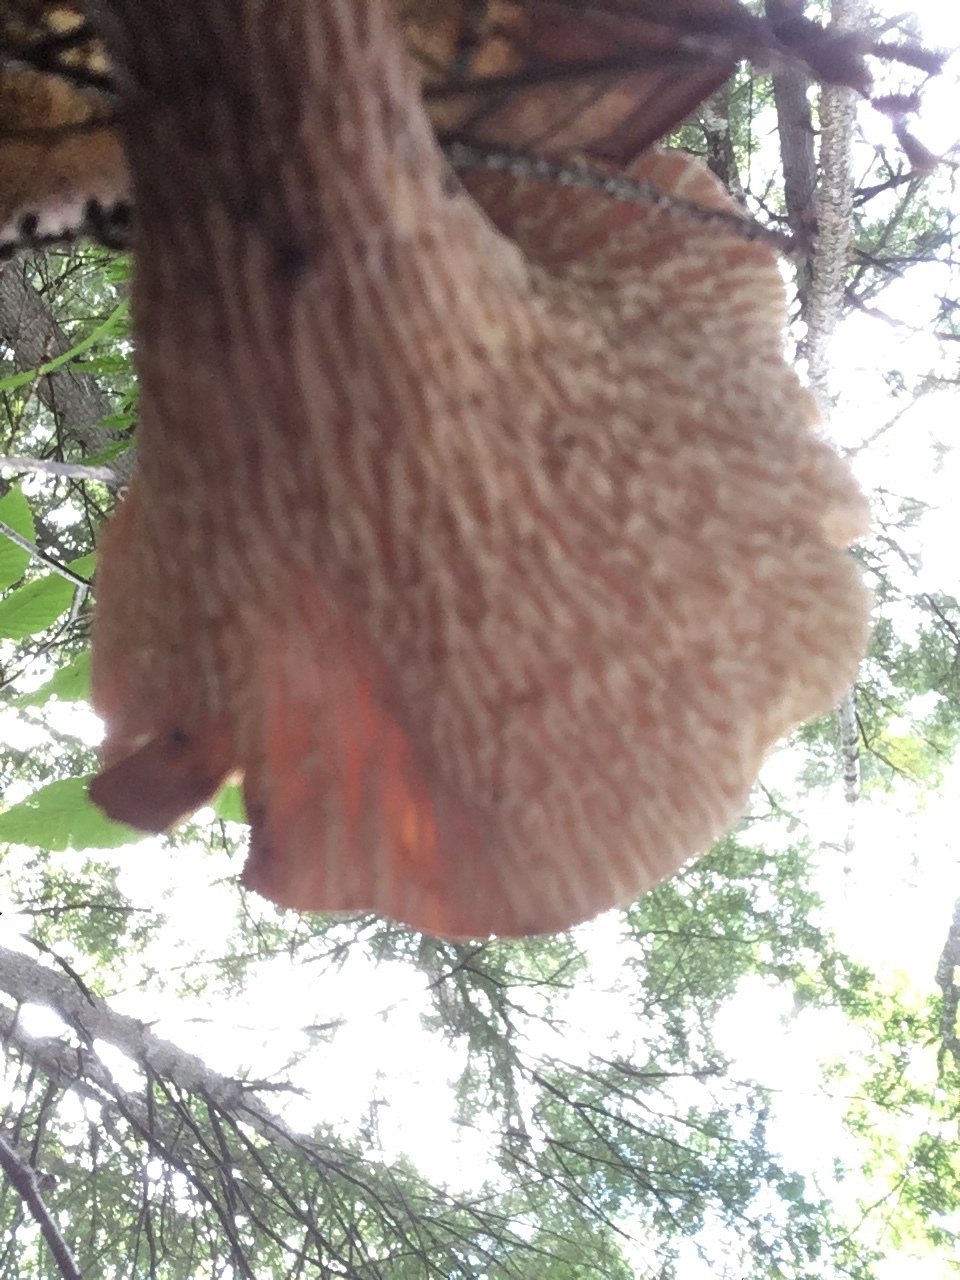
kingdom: Fungi
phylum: Basidiomycota
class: Agaricomycetes
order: Gomphales
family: Gomphaceae
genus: Turbinellus
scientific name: Turbinellus floccosus
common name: Scaly chanterelle
